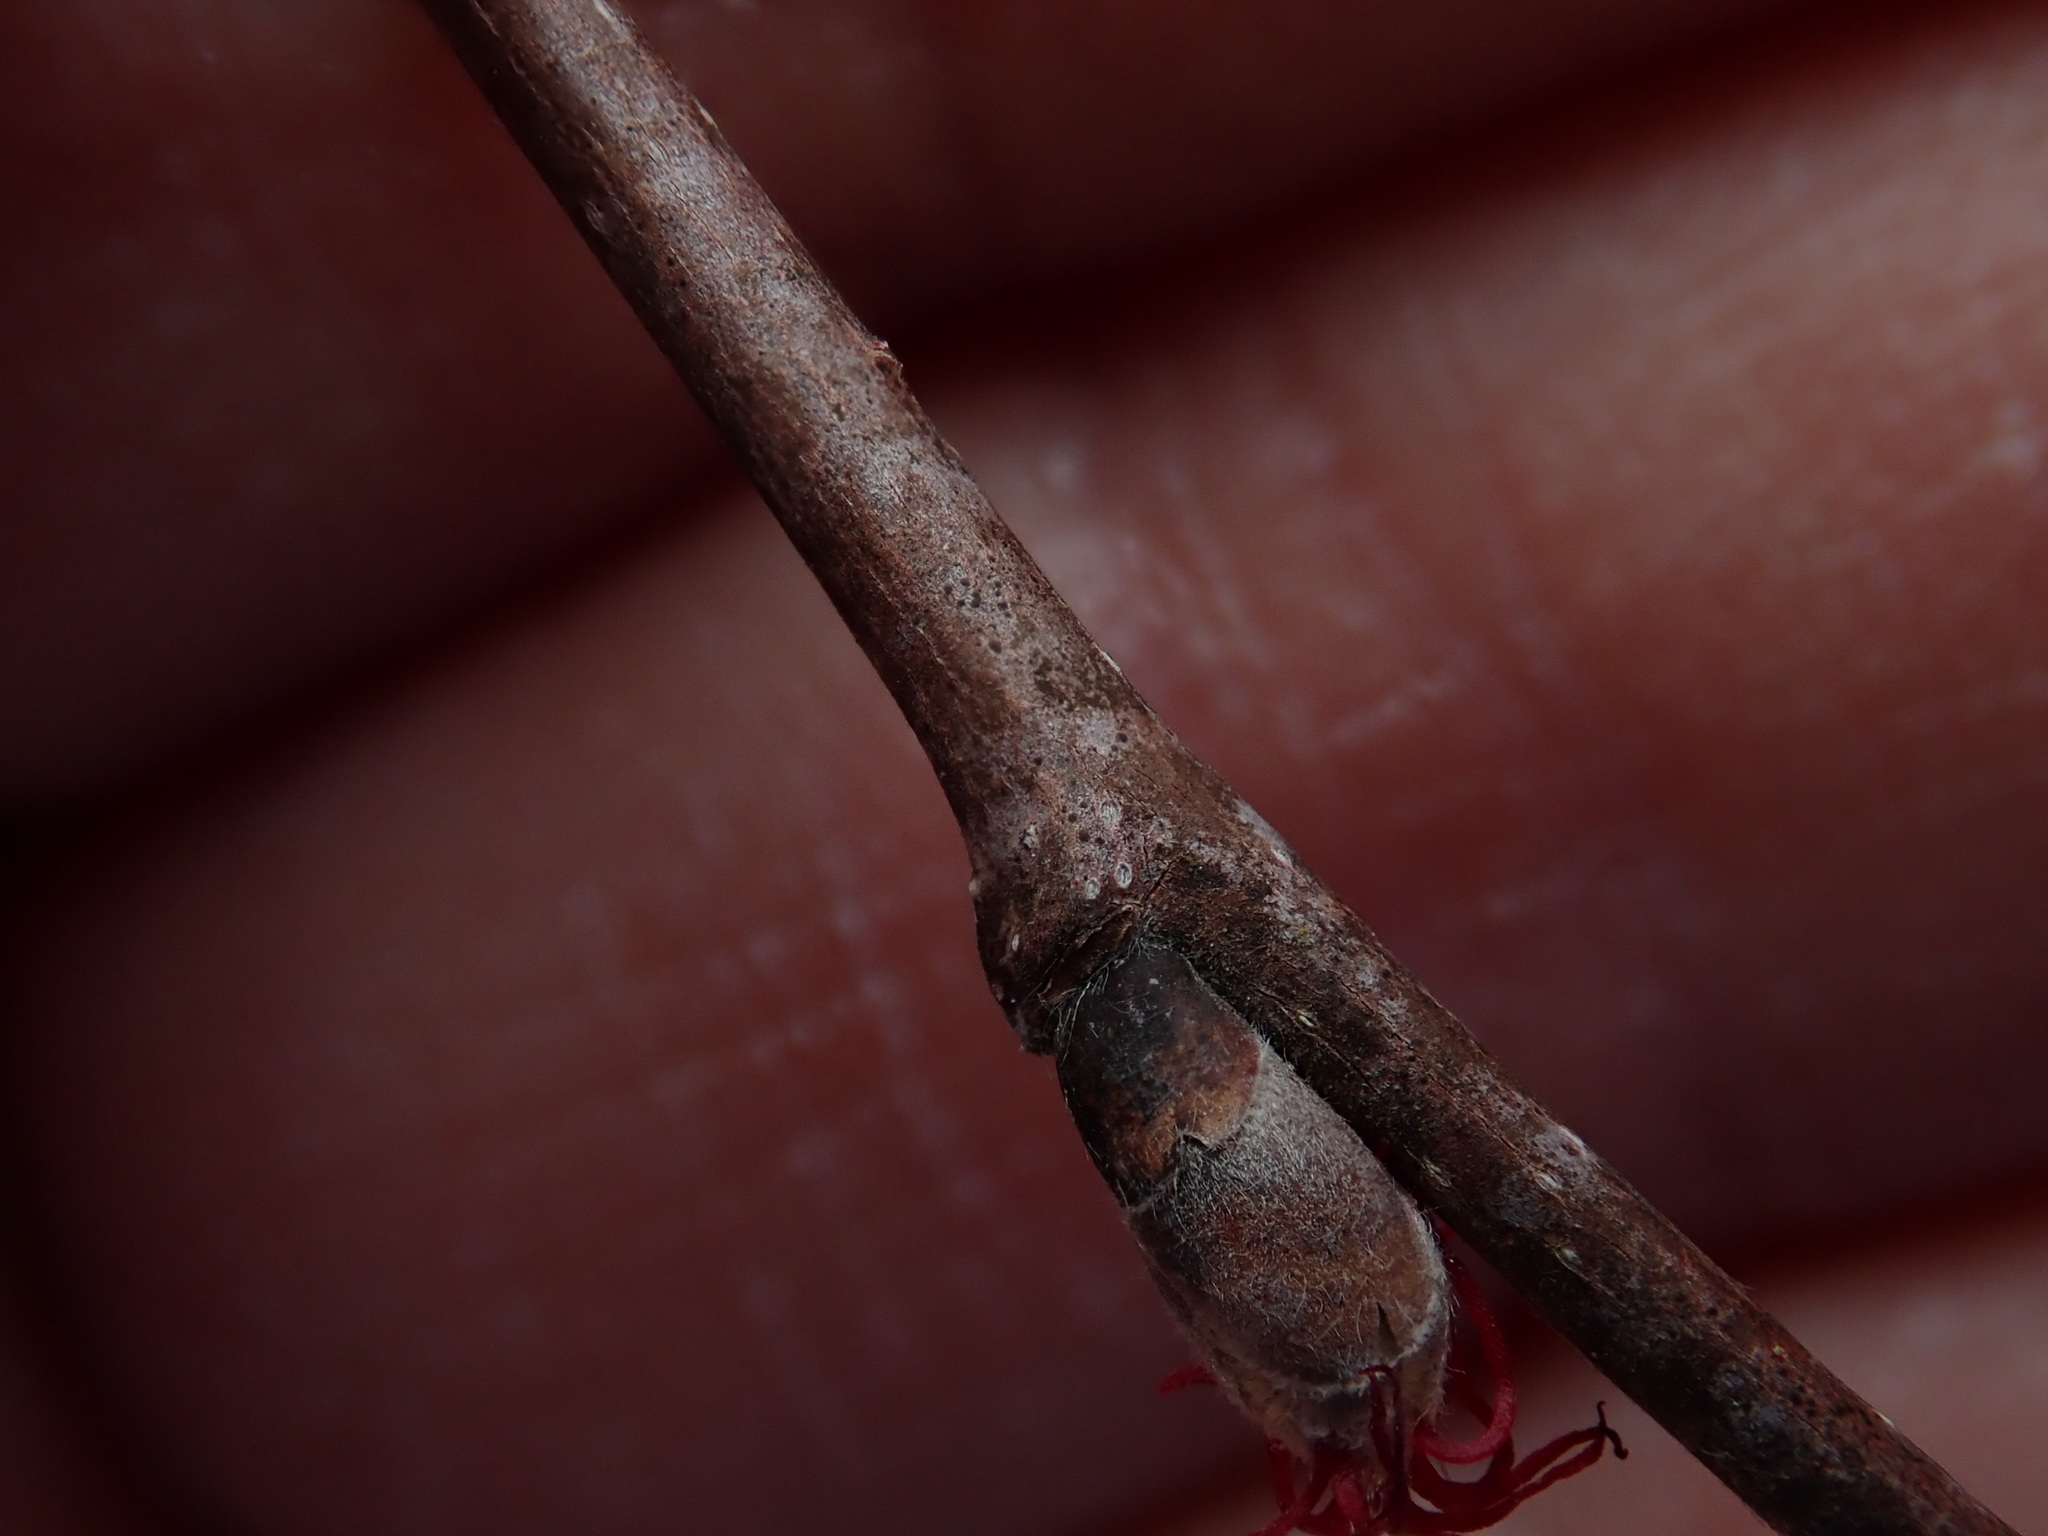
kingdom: Plantae
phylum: Tracheophyta
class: Magnoliopsida
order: Fagales
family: Betulaceae
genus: Corylus
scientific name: Corylus cornuta
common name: Beaked hazel
